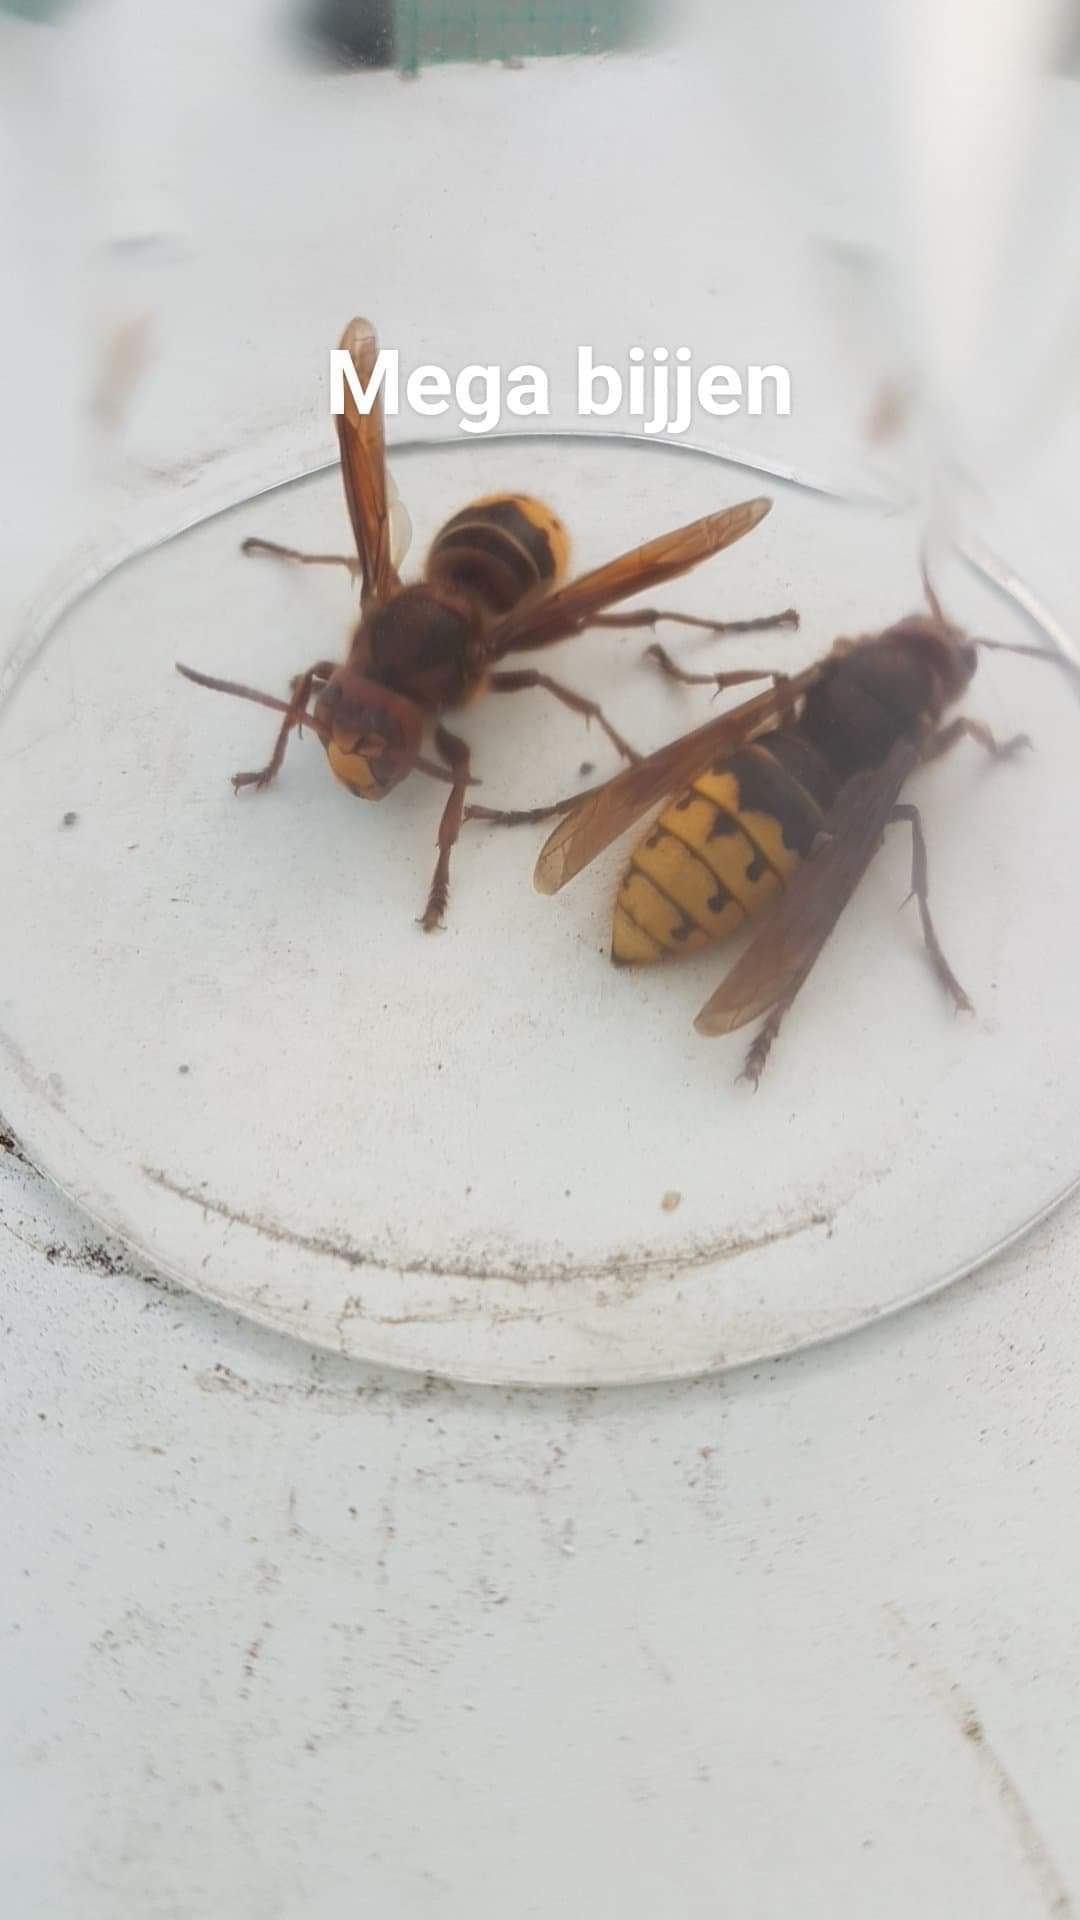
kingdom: Animalia
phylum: Arthropoda
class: Insecta
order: Hymenoptera
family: Vespidae
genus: Vespa
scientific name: Vespa crabro
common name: Hornet
